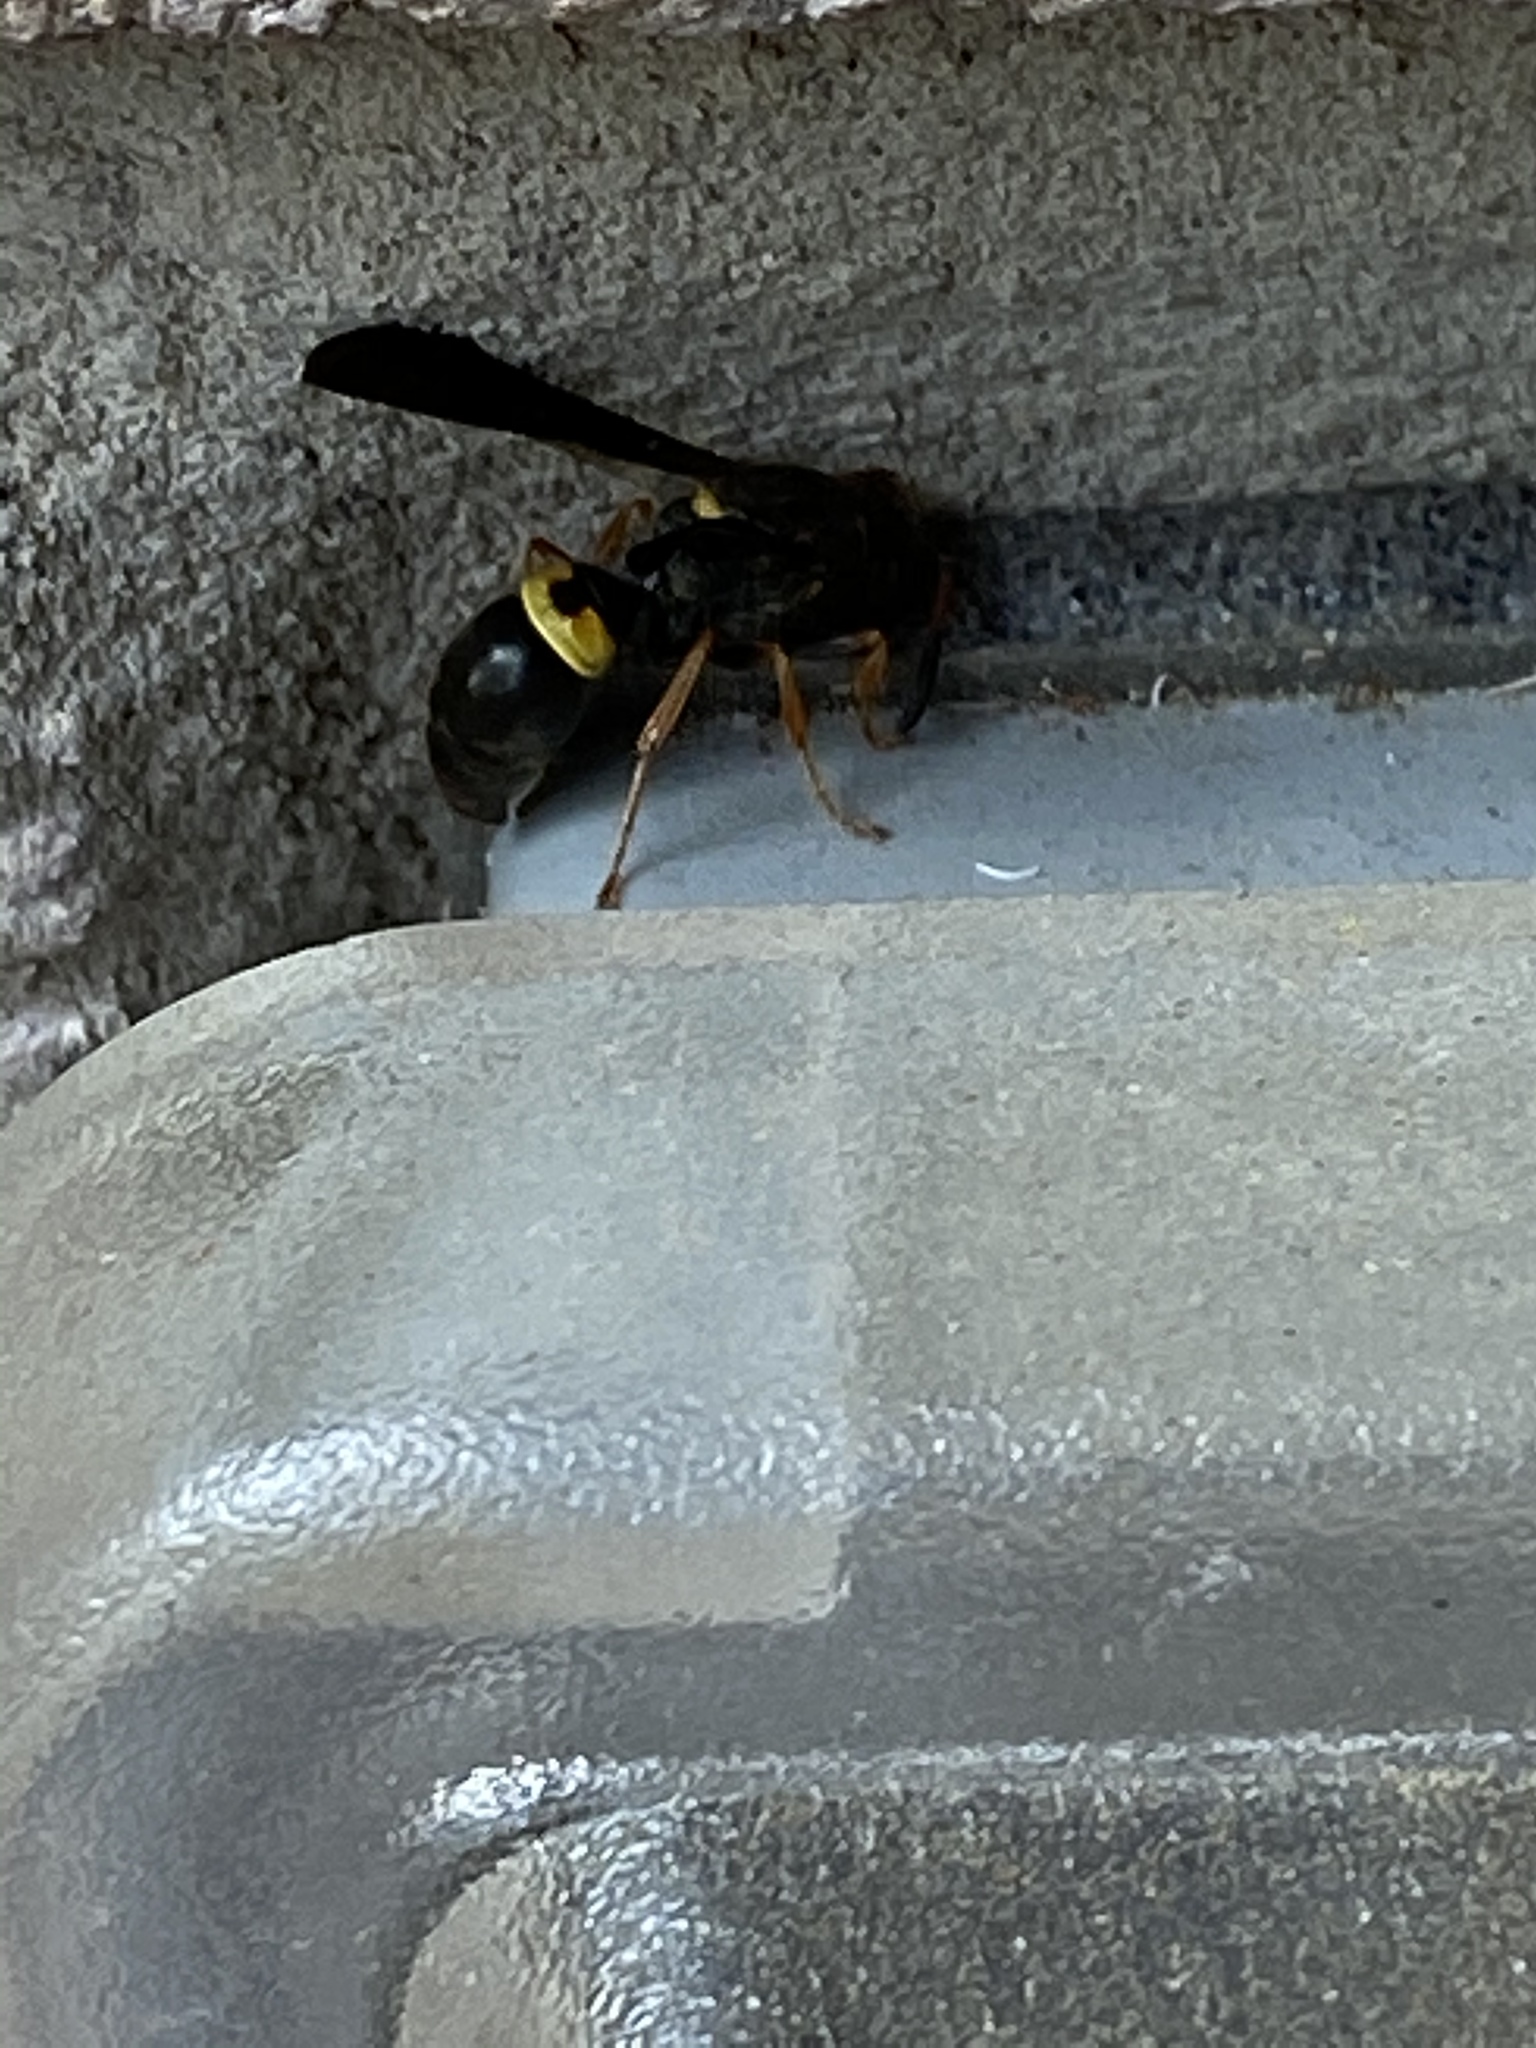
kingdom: Animalia
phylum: Arthropoda
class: Insecta
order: Hymenoptera
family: Vespidae
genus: Ancistrocerus
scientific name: Ancistrocerus unifasciatus
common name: One-banded mason wasp
